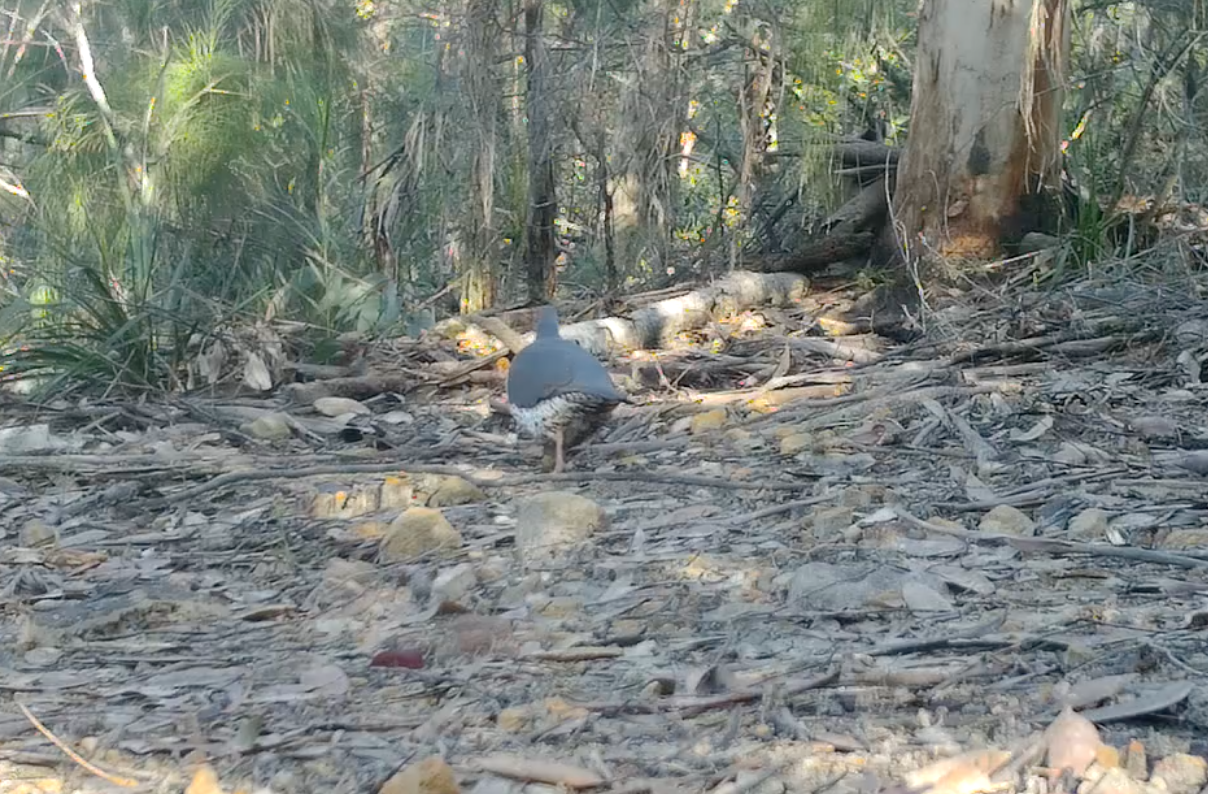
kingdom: Animalia
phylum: Chordata
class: Aves
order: Columbiformes
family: Columbidae
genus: Leucosarcia
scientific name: Leucosarcia melanoleuca
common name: Wonga pigeon
